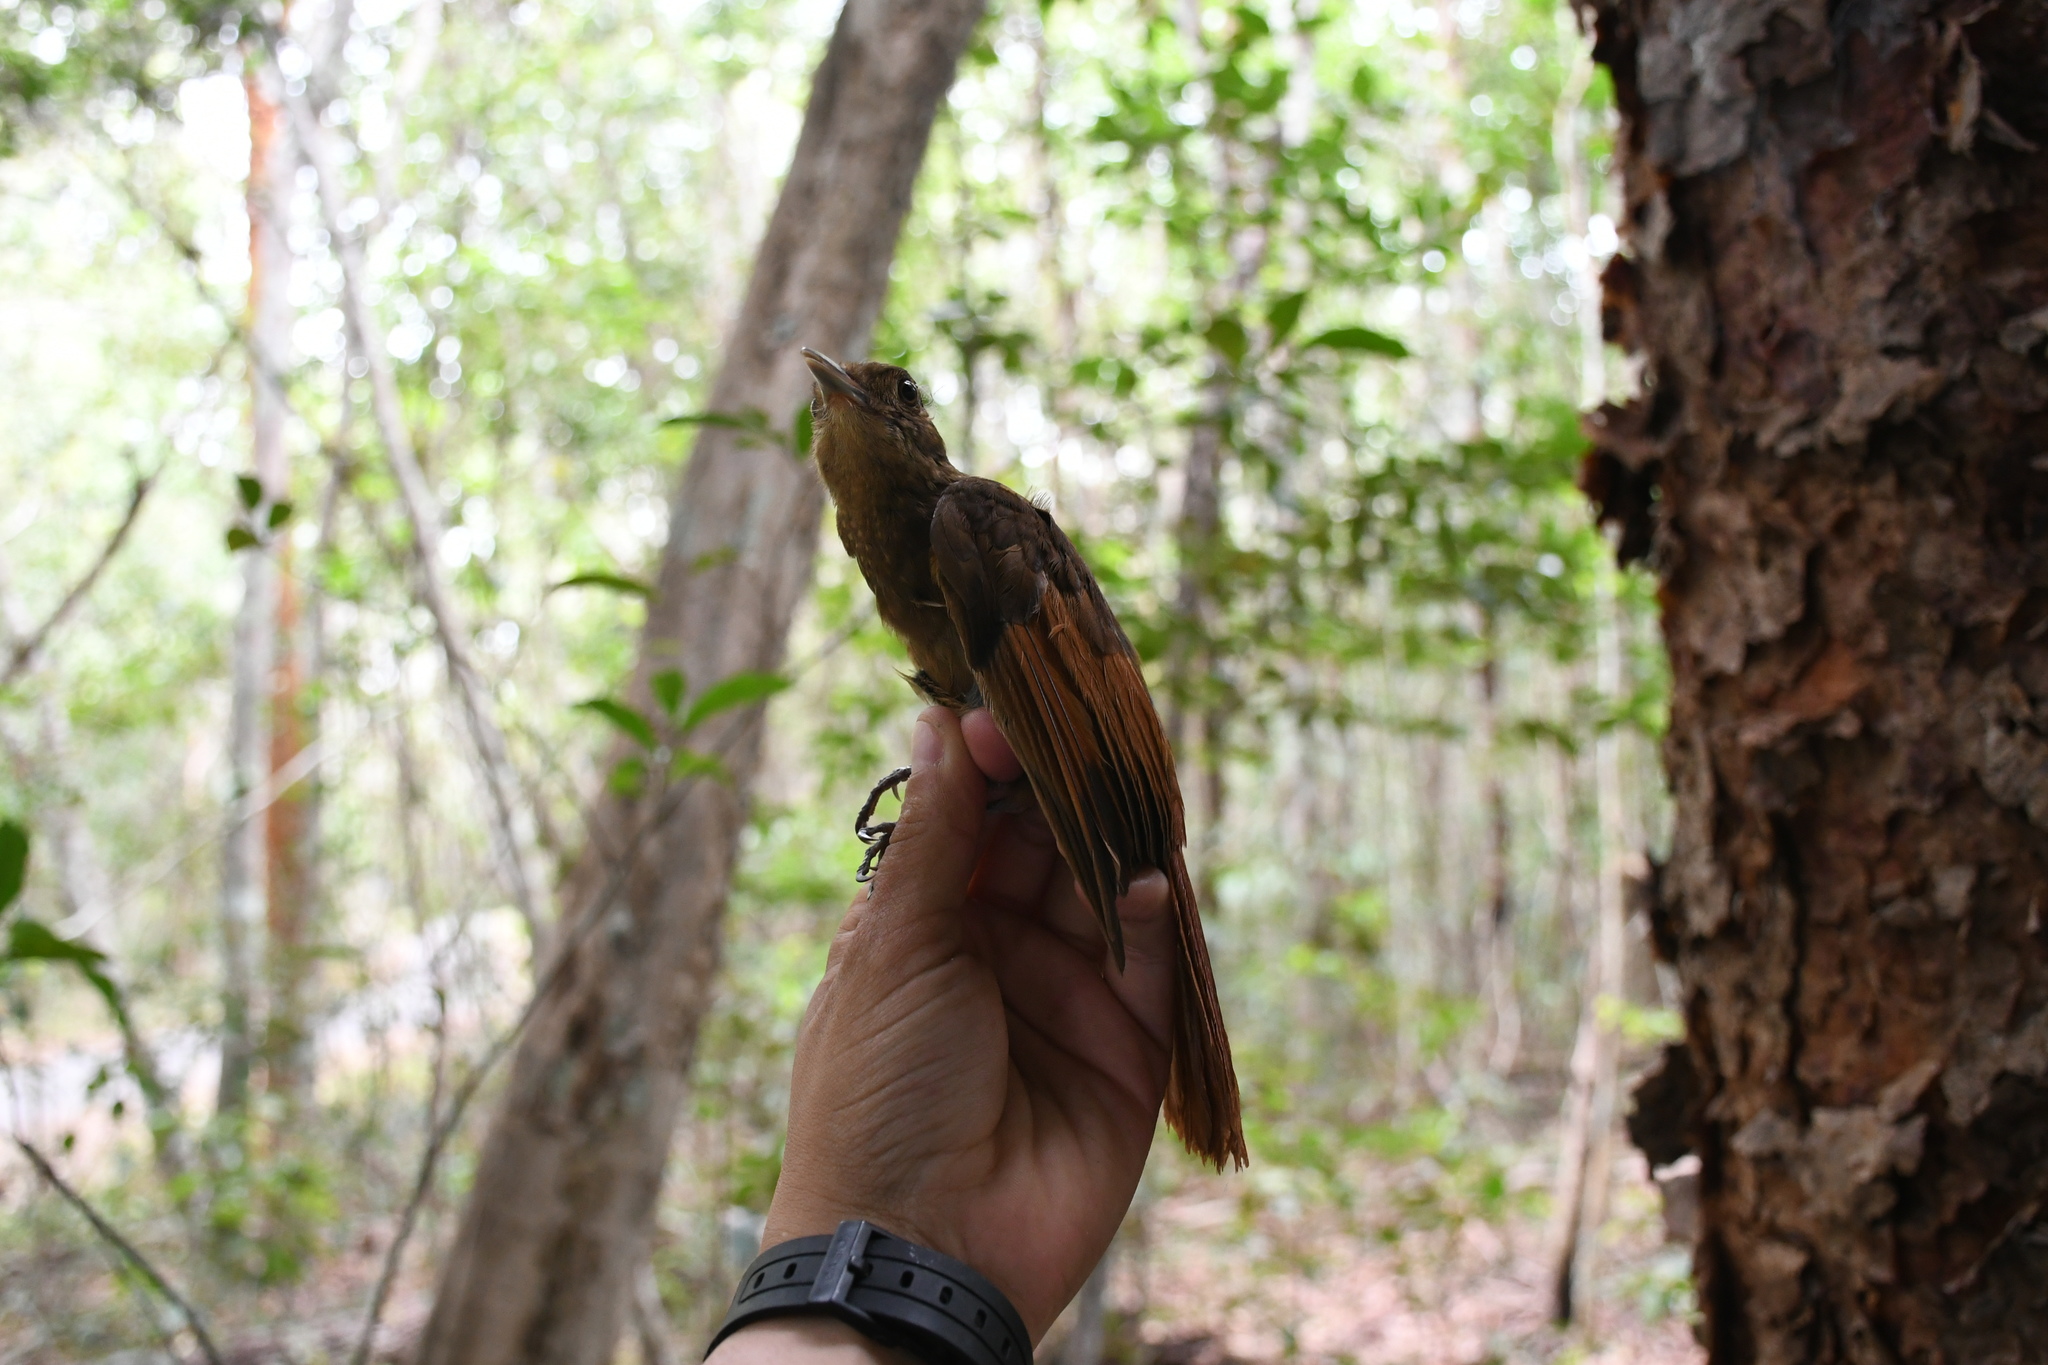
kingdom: Animalia
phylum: Chordata
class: Aves
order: Passeriformes
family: Furnariidae
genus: Dendrocincla
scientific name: Dendrocincla anabatina
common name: Tawny-winged woodcreeper
